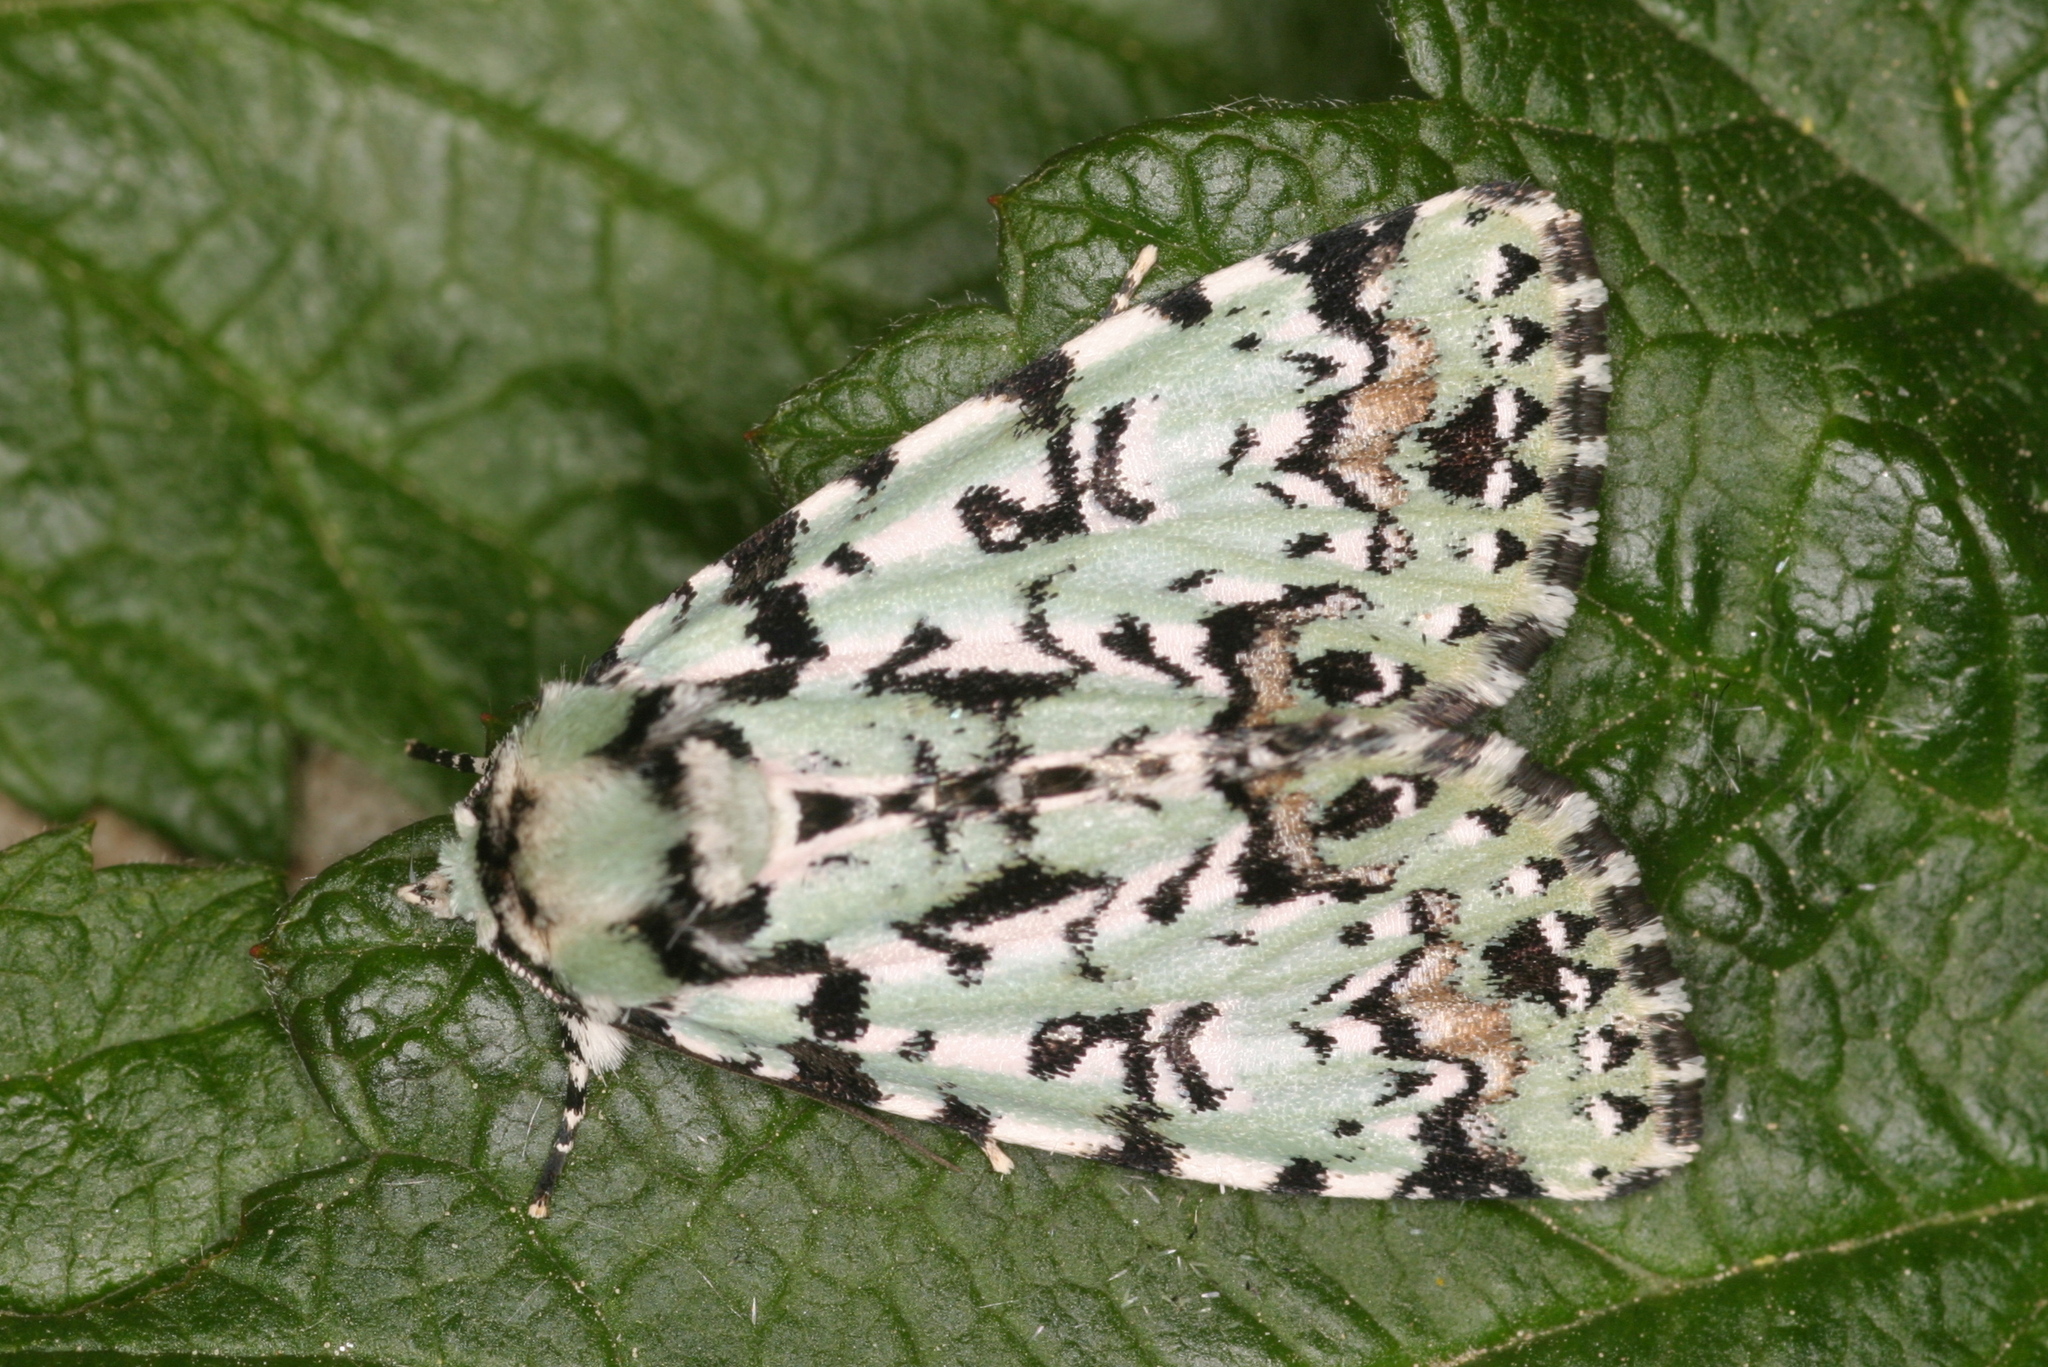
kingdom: Animalia
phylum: Arthropoda
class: Insecta
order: Lepidoptera
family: Noctuidae
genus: Moma
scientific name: Moma alpium
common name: Scarce merveille du jour
